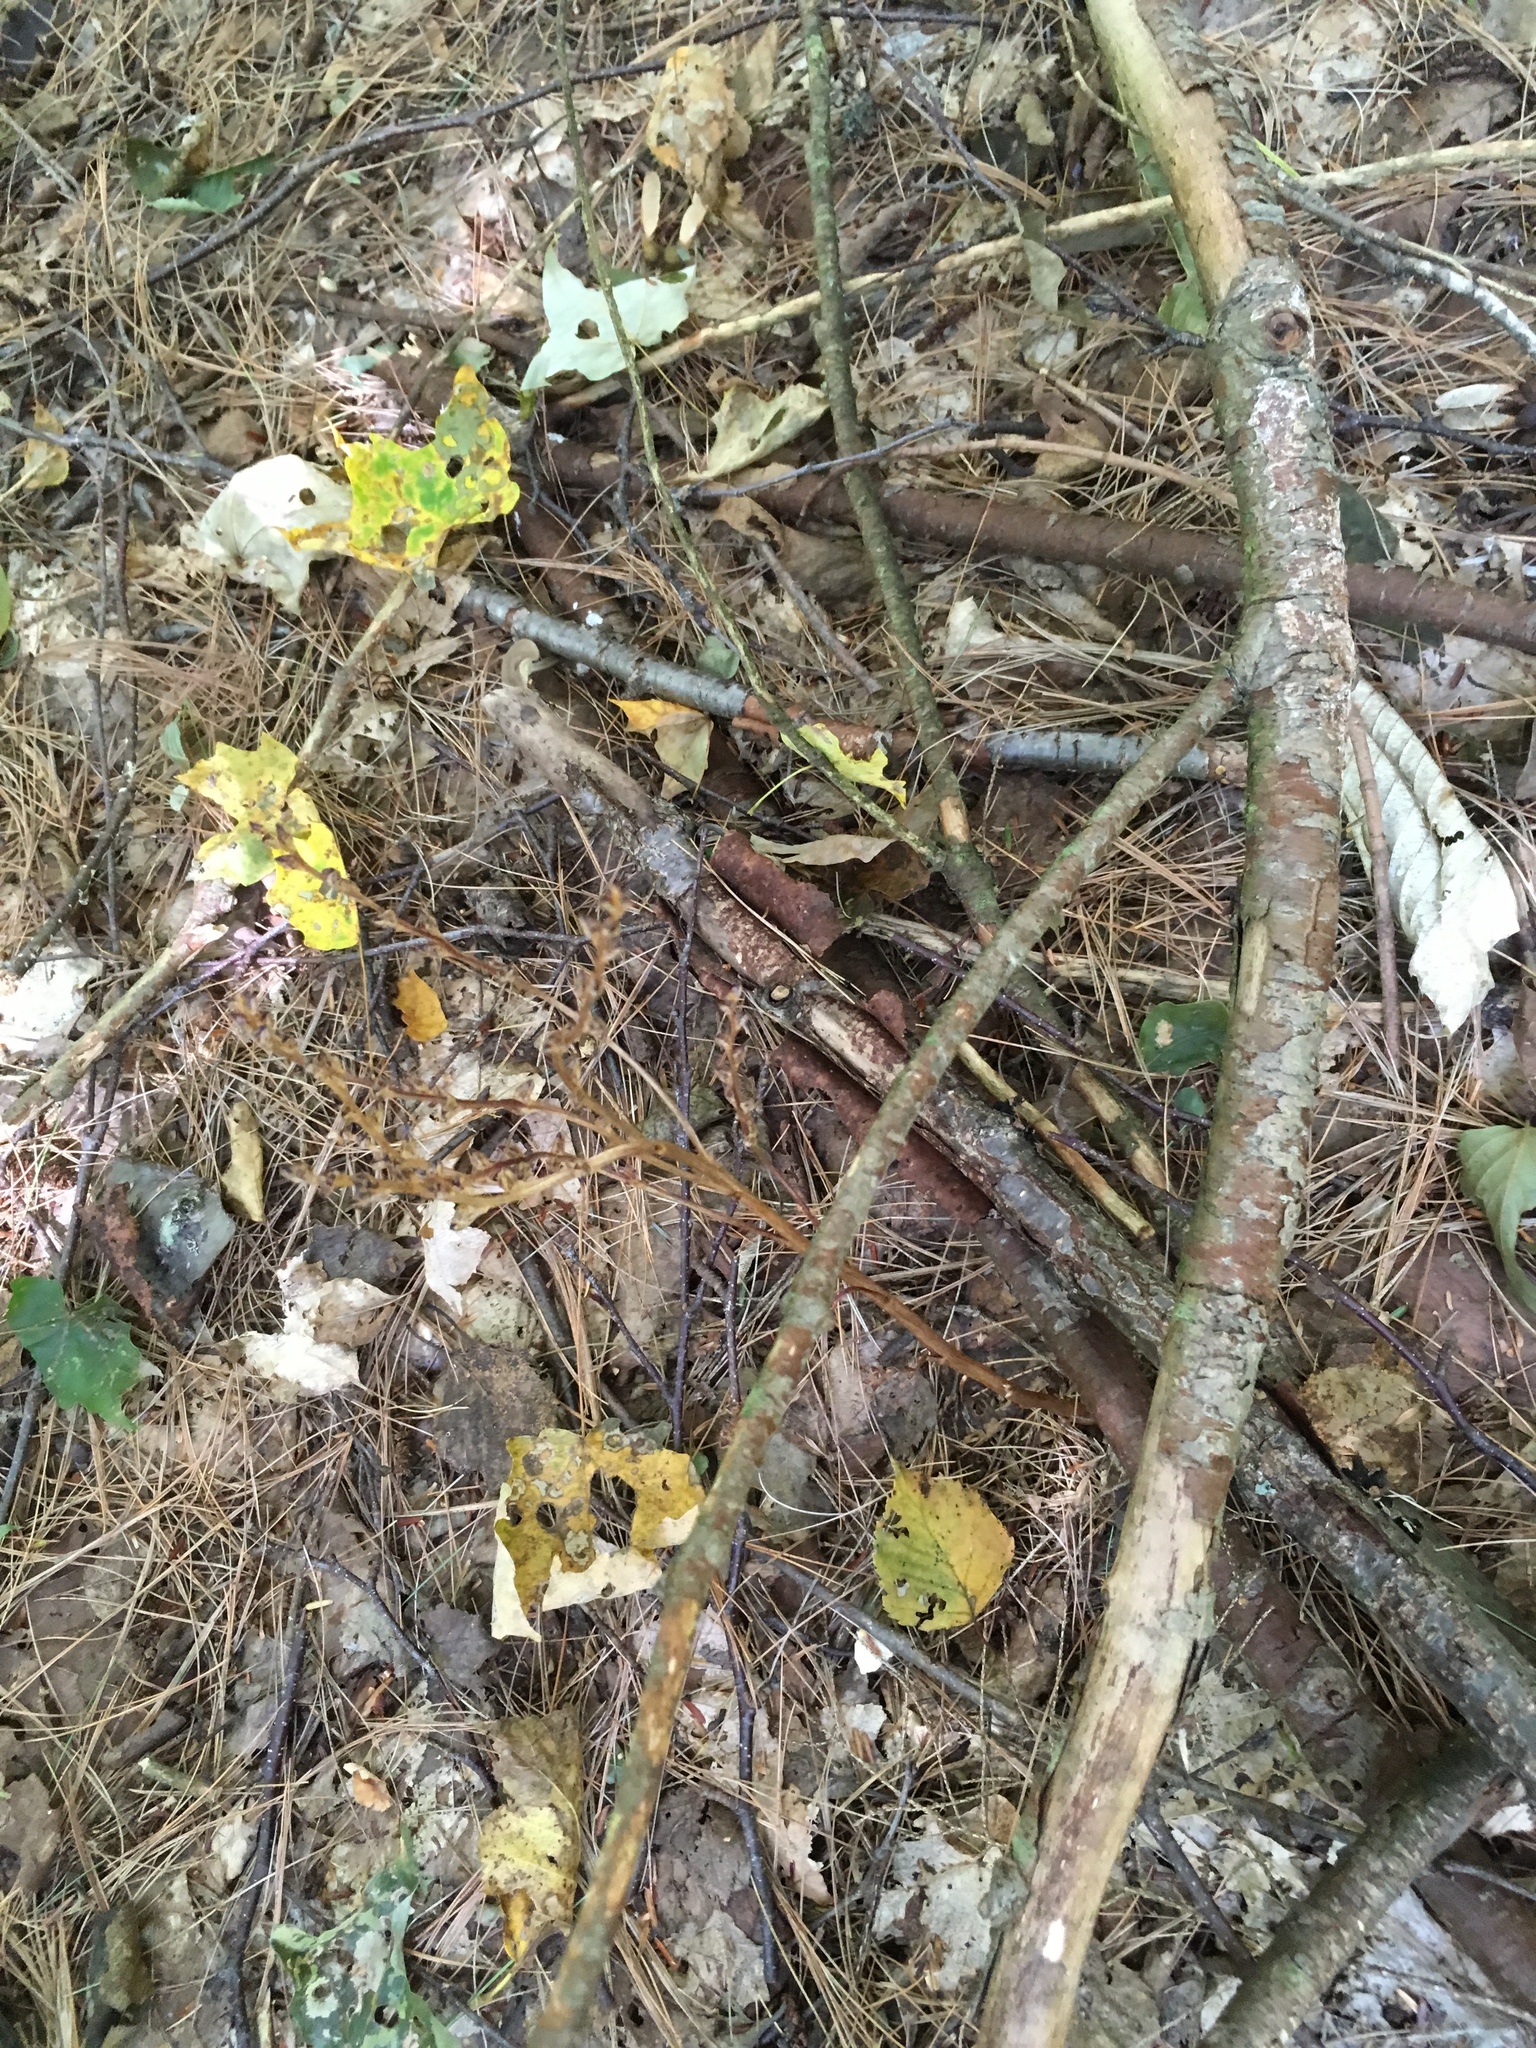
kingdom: Plantae
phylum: Tracheophyta
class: Magnoliopsida
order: Lamiales
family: Orobanchaceae
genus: Epifagus
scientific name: Epifagus virginiana
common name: Beechdrops
